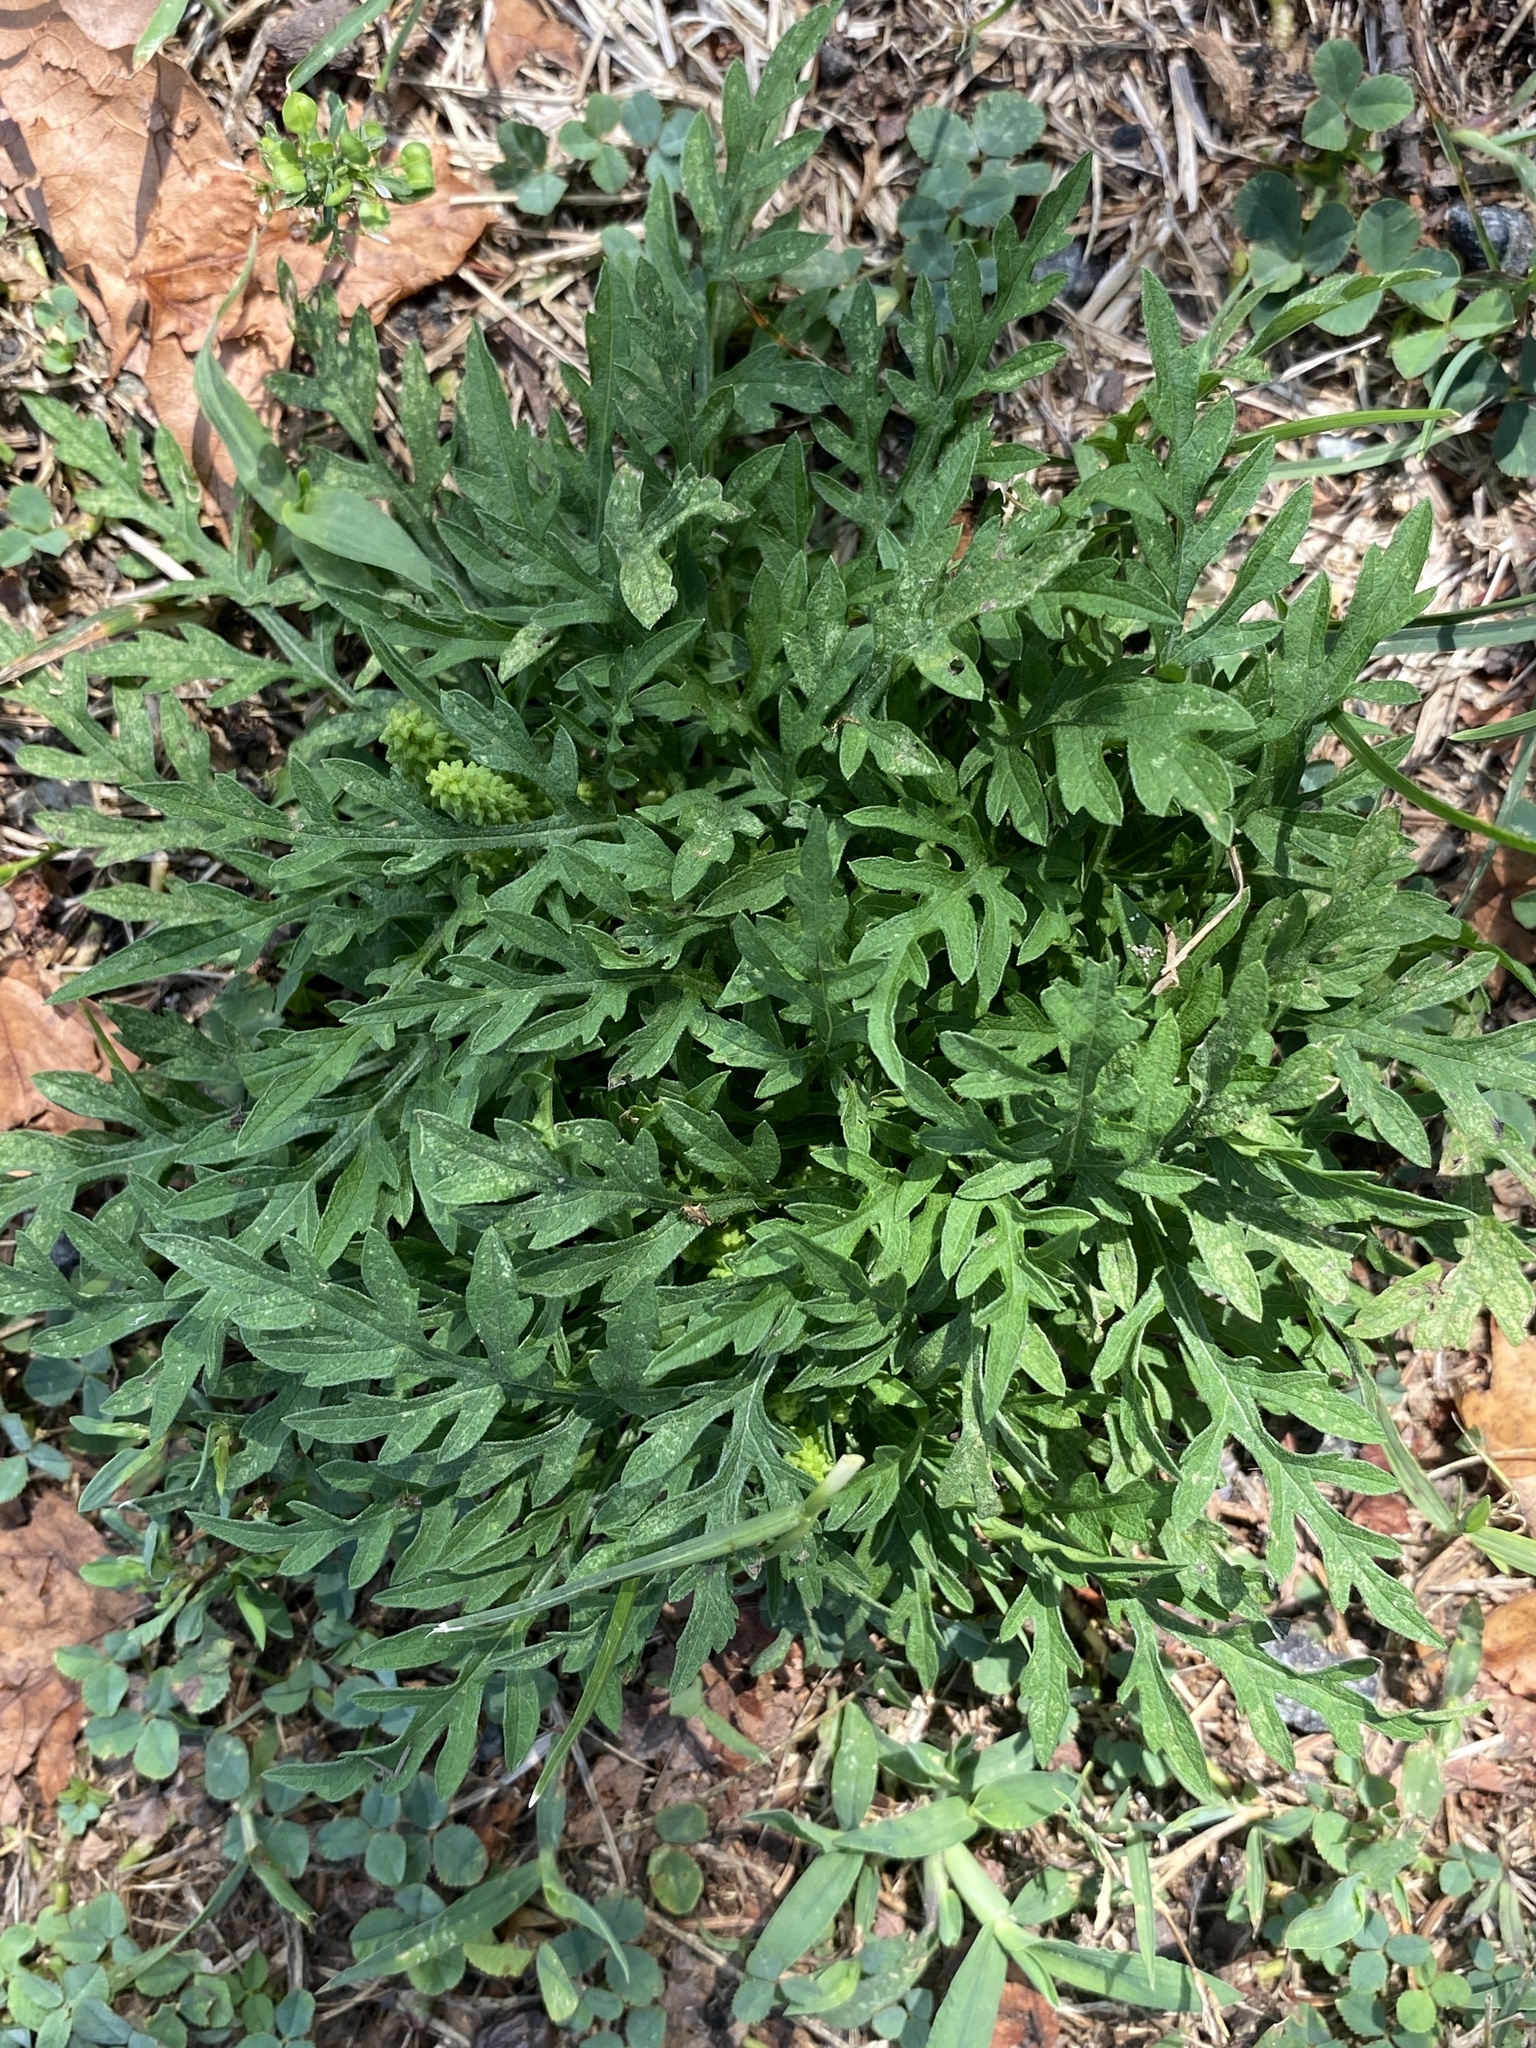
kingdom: Plantae
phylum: Tracheophyta
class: Magnoliopsida
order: Asterales
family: Asteraceae
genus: Ambrosia
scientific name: Ambrosia artemisiifolia
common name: Annual ragweed
